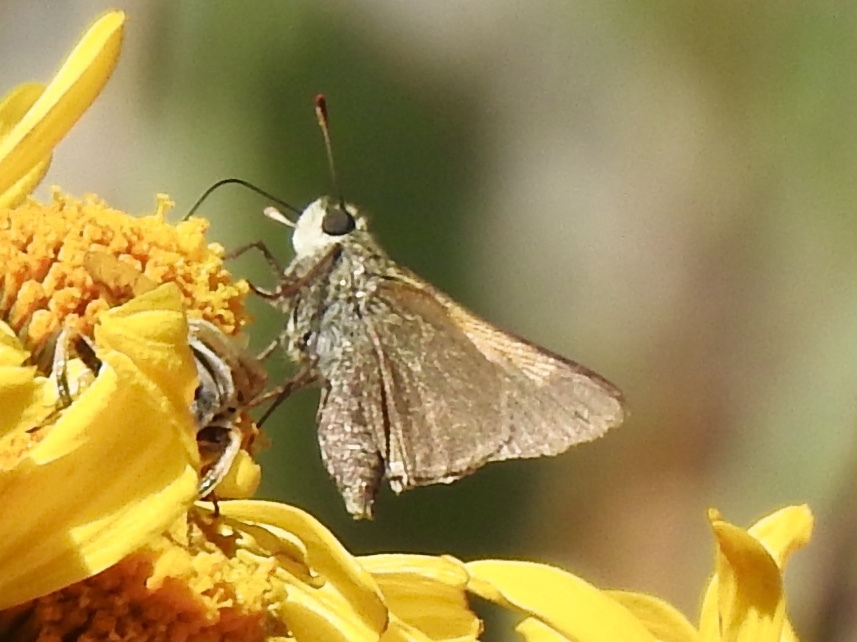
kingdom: Animalia
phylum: Arthropoda
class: Insecta
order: Lepidoptera
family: Hesperiidae
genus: Polites
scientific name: Polites themistocles
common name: Tawny-edged skipper
